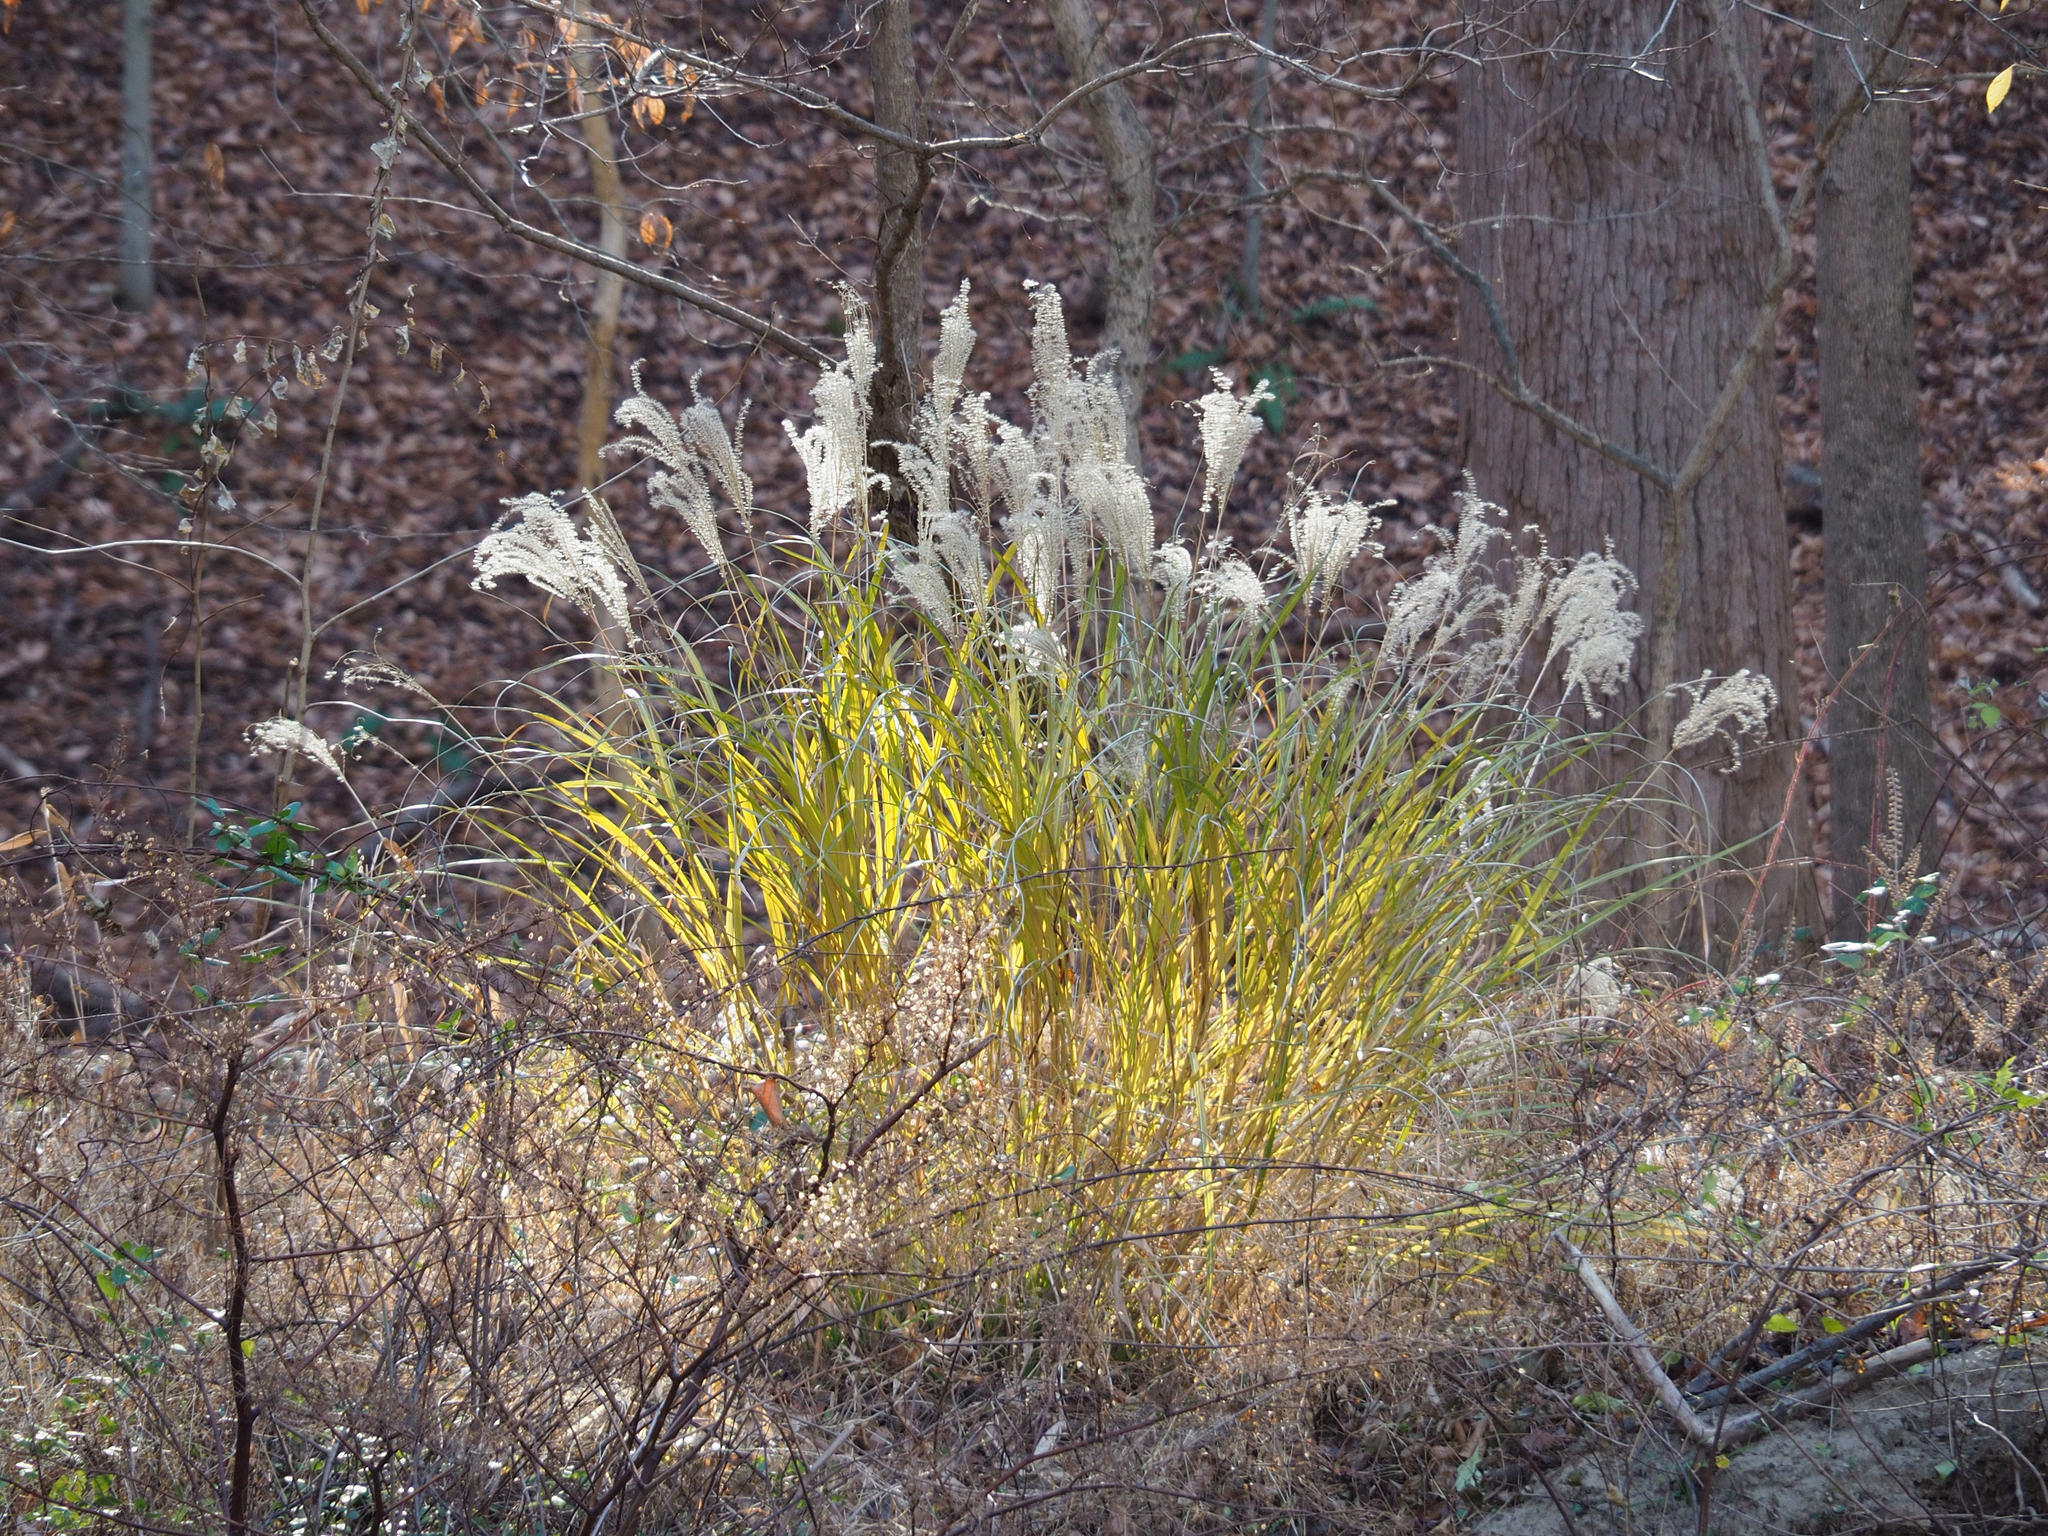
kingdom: Plantae
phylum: Tracheophyta
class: Liliopsida
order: Poales
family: Poaceae
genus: Miscanthus
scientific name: Miscanthus sinensis
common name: Chinese silvergrass
